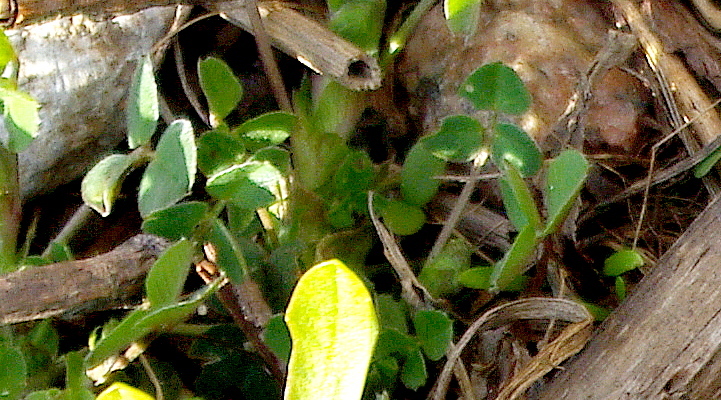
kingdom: Plantae
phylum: Tracheophyta
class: Magnoliopsida
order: Fabales
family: Fabaceae
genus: Medicago
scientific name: Medicago lupulina
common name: Black medick
